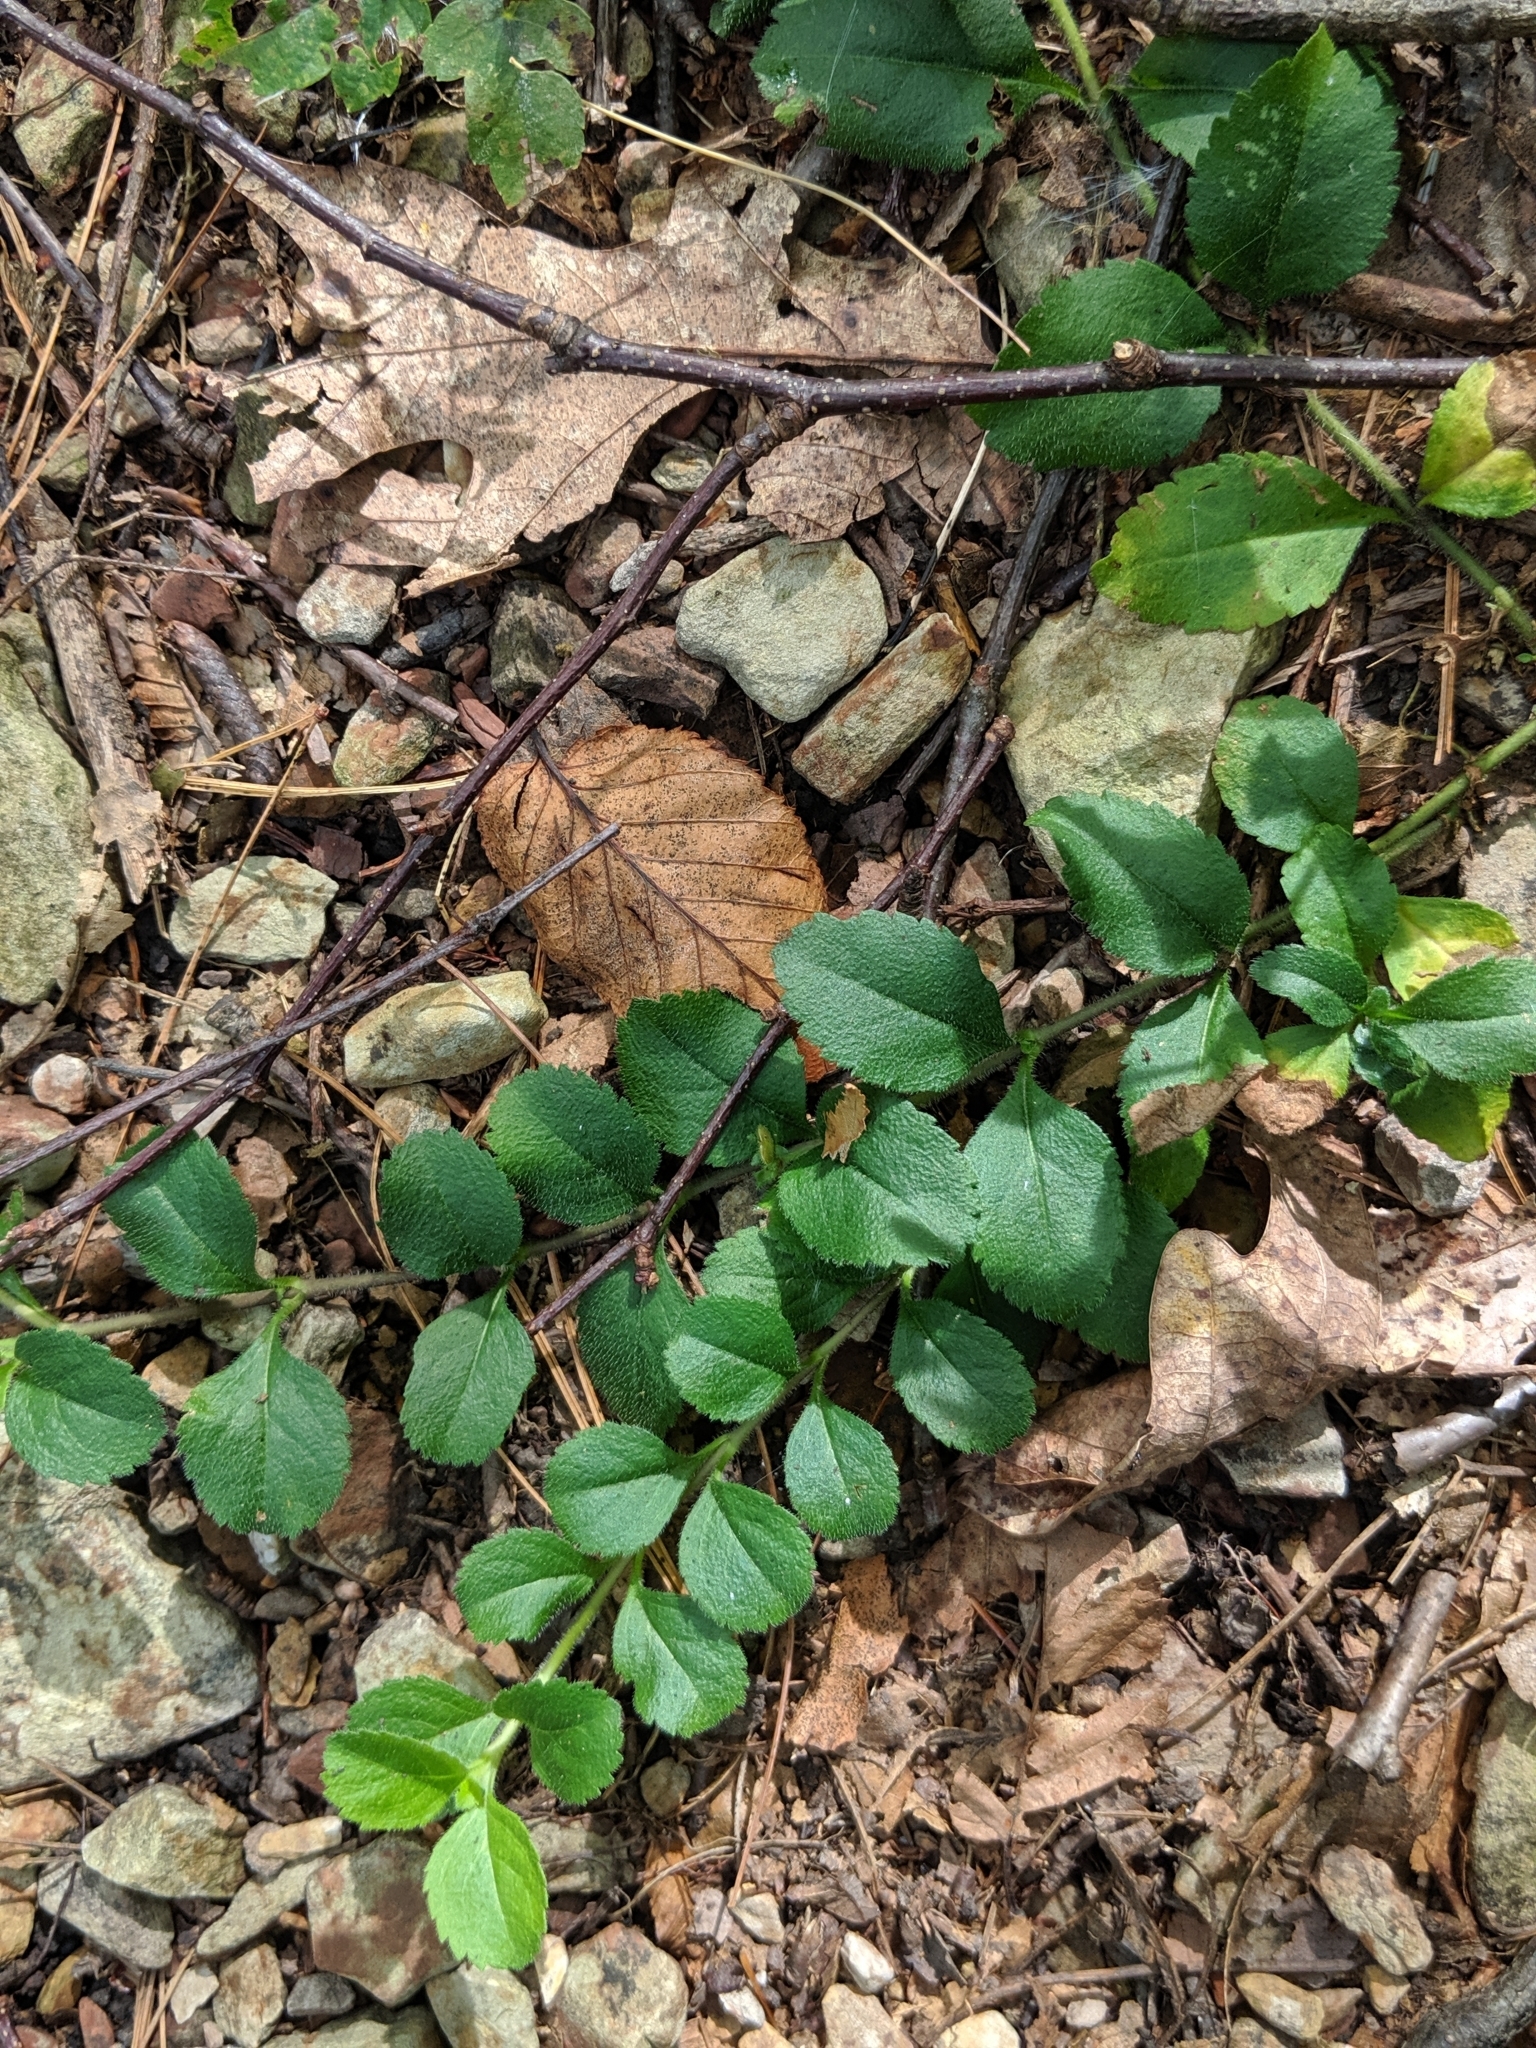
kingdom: Plantae
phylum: Tracheophyta
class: Magnoliopsida
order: Lamiales
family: Plantaginaceae
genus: Veronica
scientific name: Veronica officinalis
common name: Common speedwell
